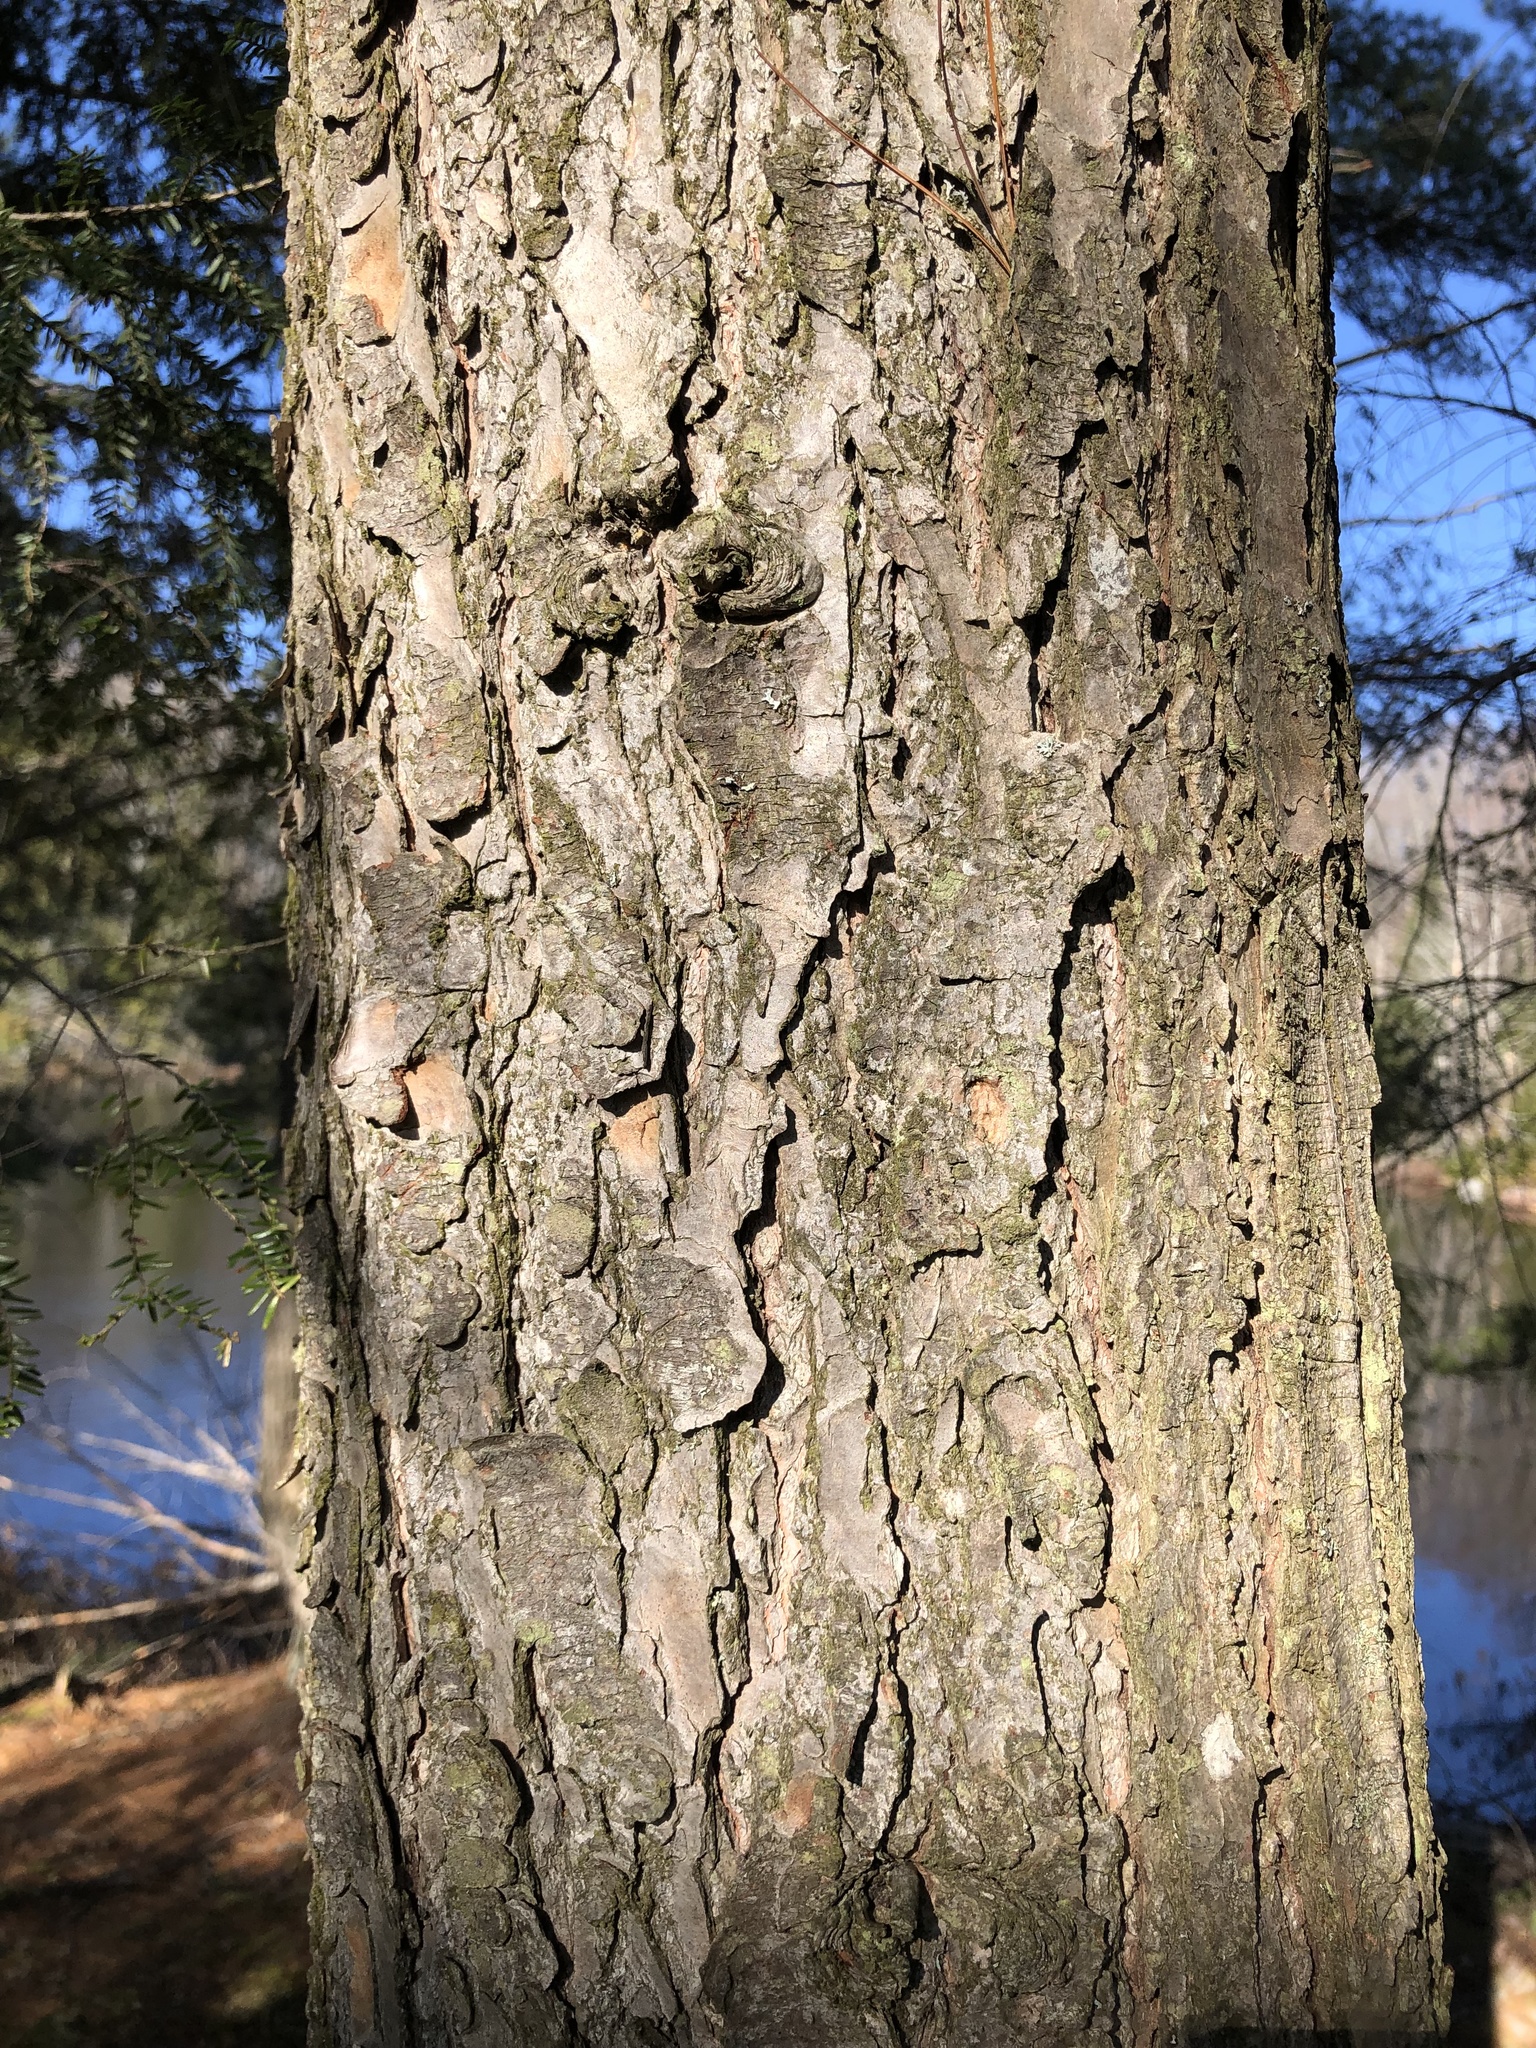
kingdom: Plantae
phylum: Tracheophyta
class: Pinopsida
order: Pinales
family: Pinaceae
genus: Tsuga
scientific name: Tsuga canadensis
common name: Eastern hemlock
